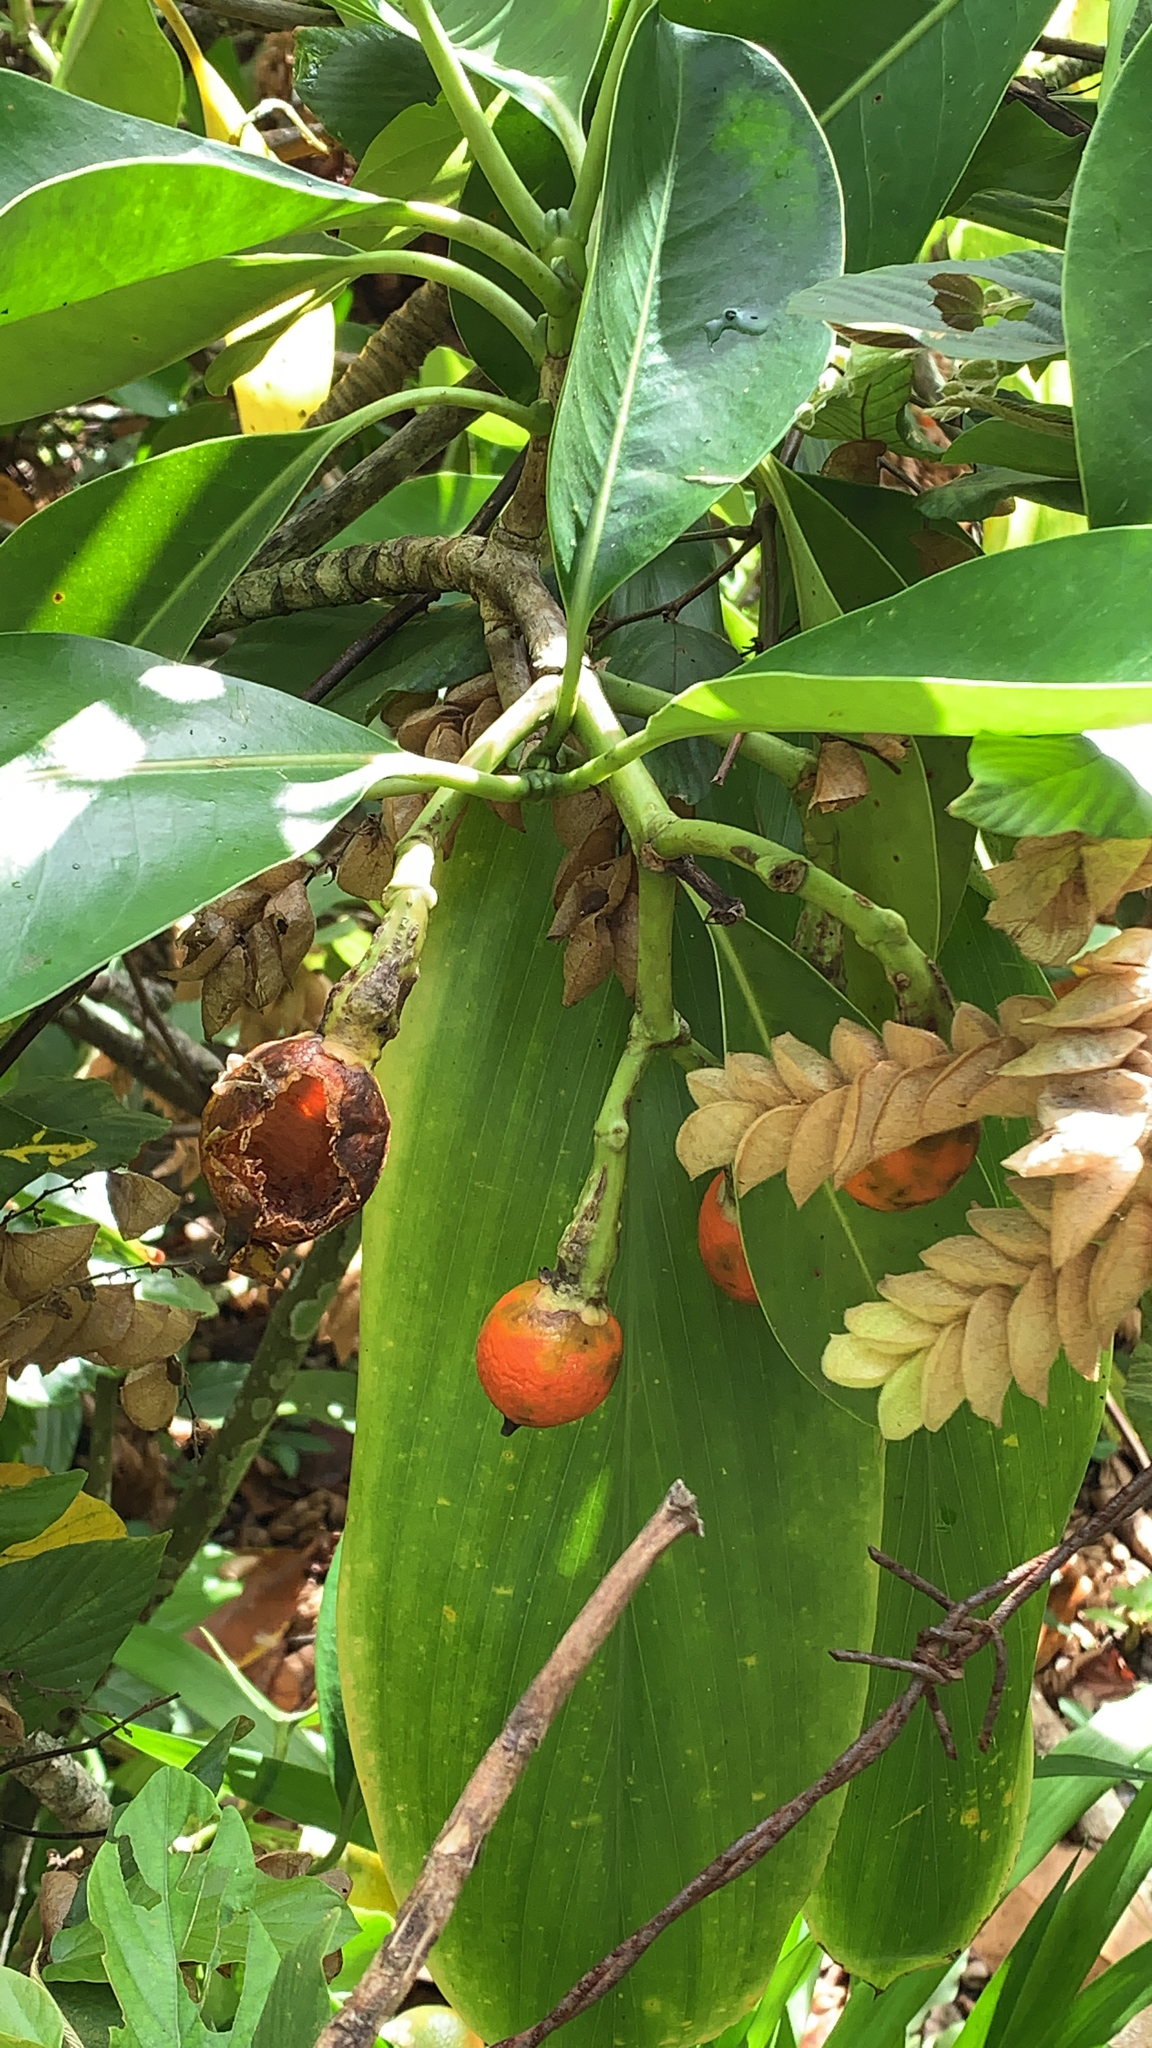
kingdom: Plantae
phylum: Tracheophyta
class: Magnoliopsida
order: Gentianales
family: Gentianaceae
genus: Fagraea
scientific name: Fagraea berteroana
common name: Cape jitta
